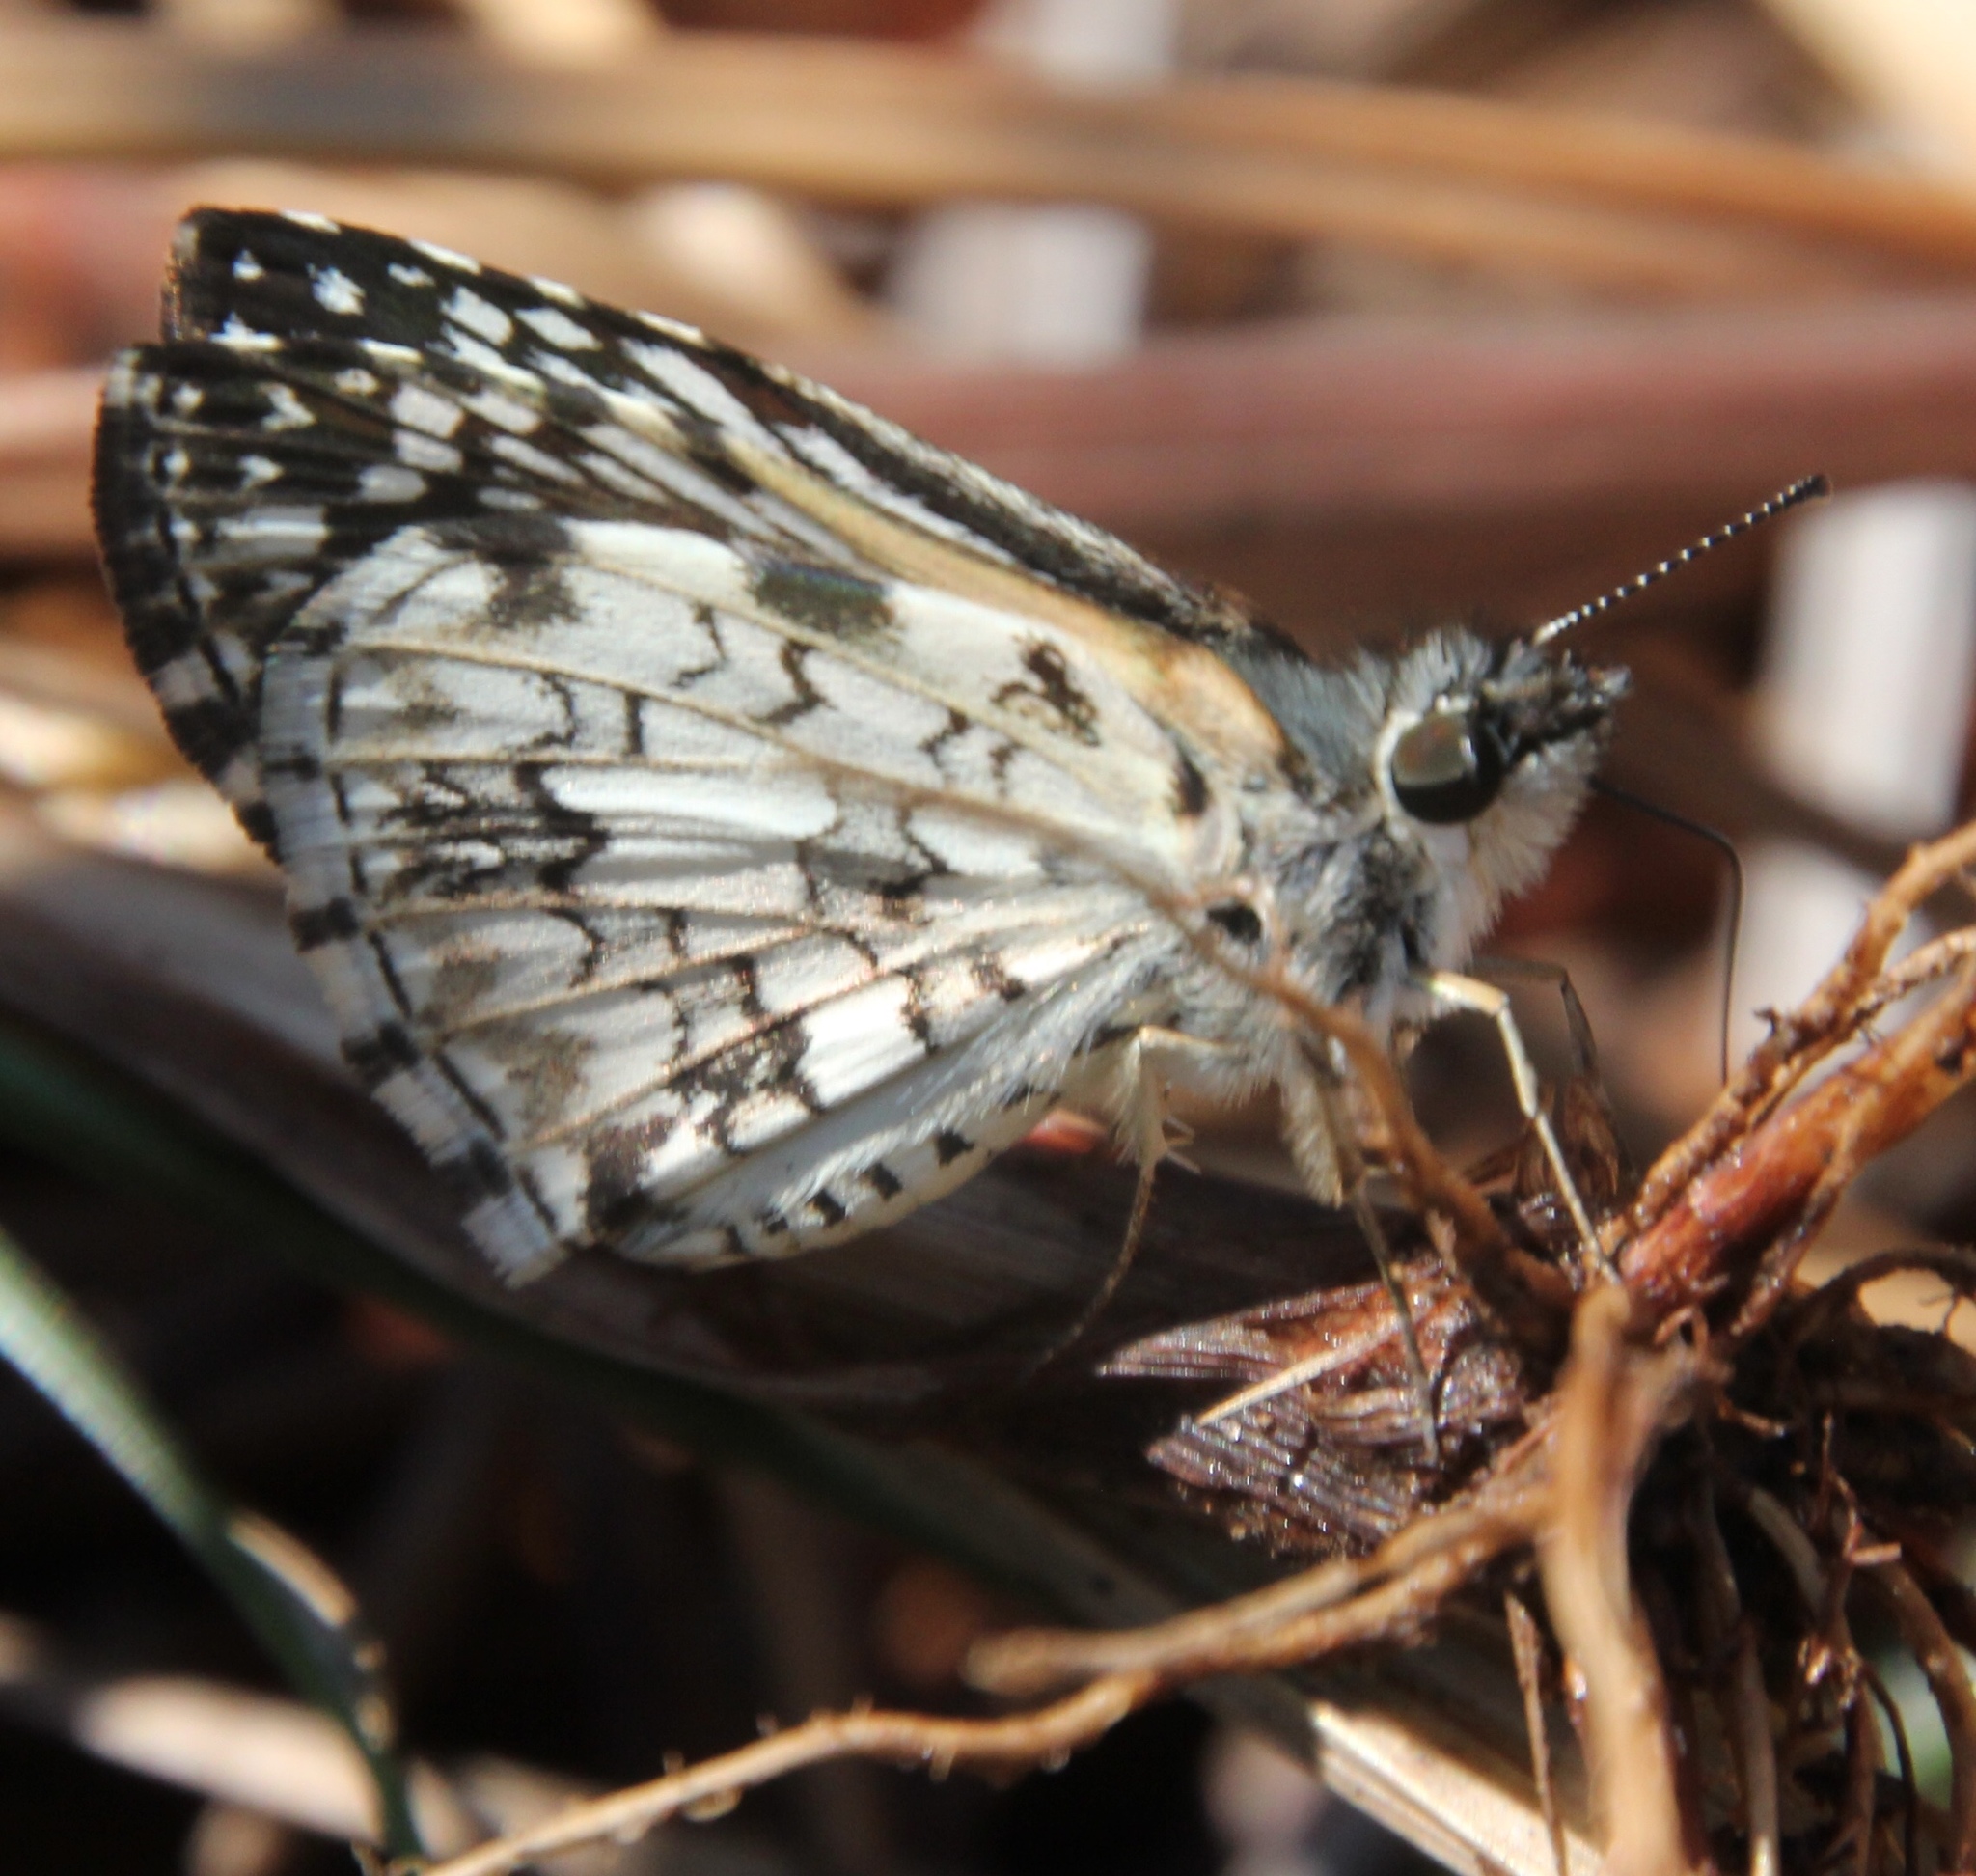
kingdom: Animalia
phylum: Arthropoda
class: Insecta
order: Lepidoptera
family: Hesperiidae
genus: Pyrgus
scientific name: Pyrgus oileus
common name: Tropical checkered-skipper
